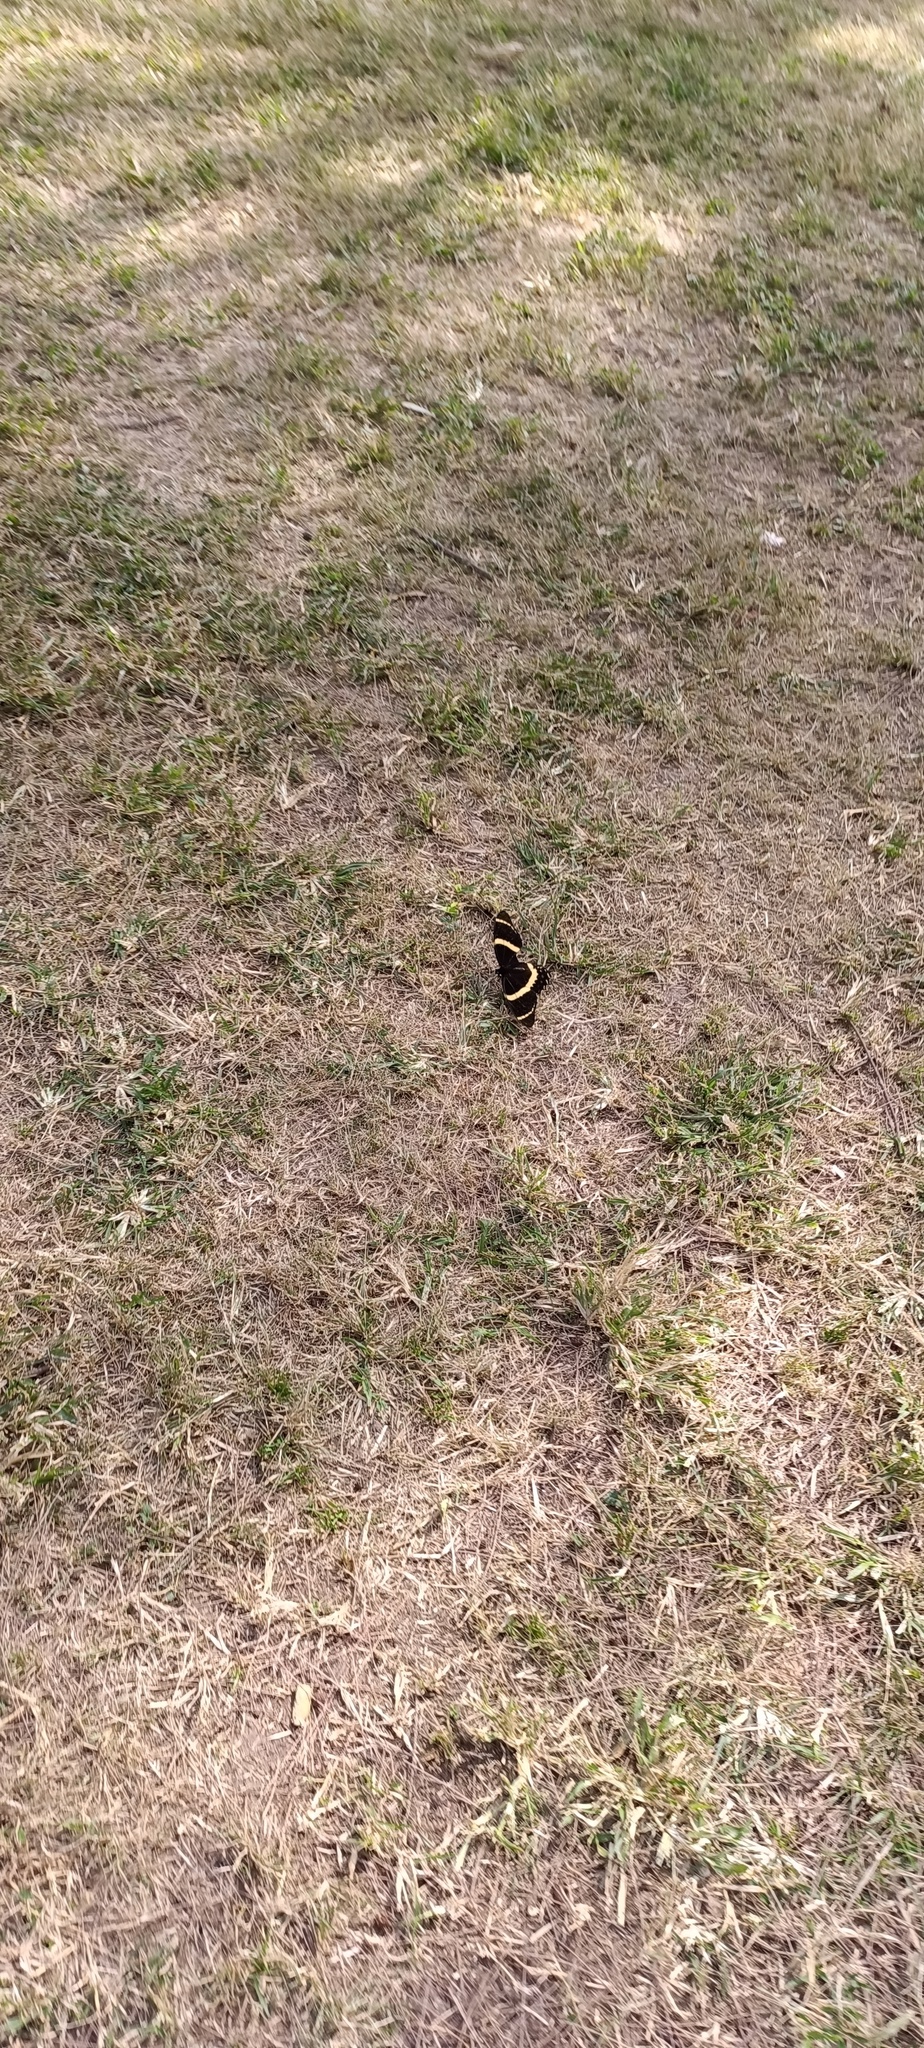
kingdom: Animalia
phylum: Arthropoda
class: Insecta
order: Lepidoptera
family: Papilionidae
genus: Papilio
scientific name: Papilio garamas
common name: Magnificent swallowtail
